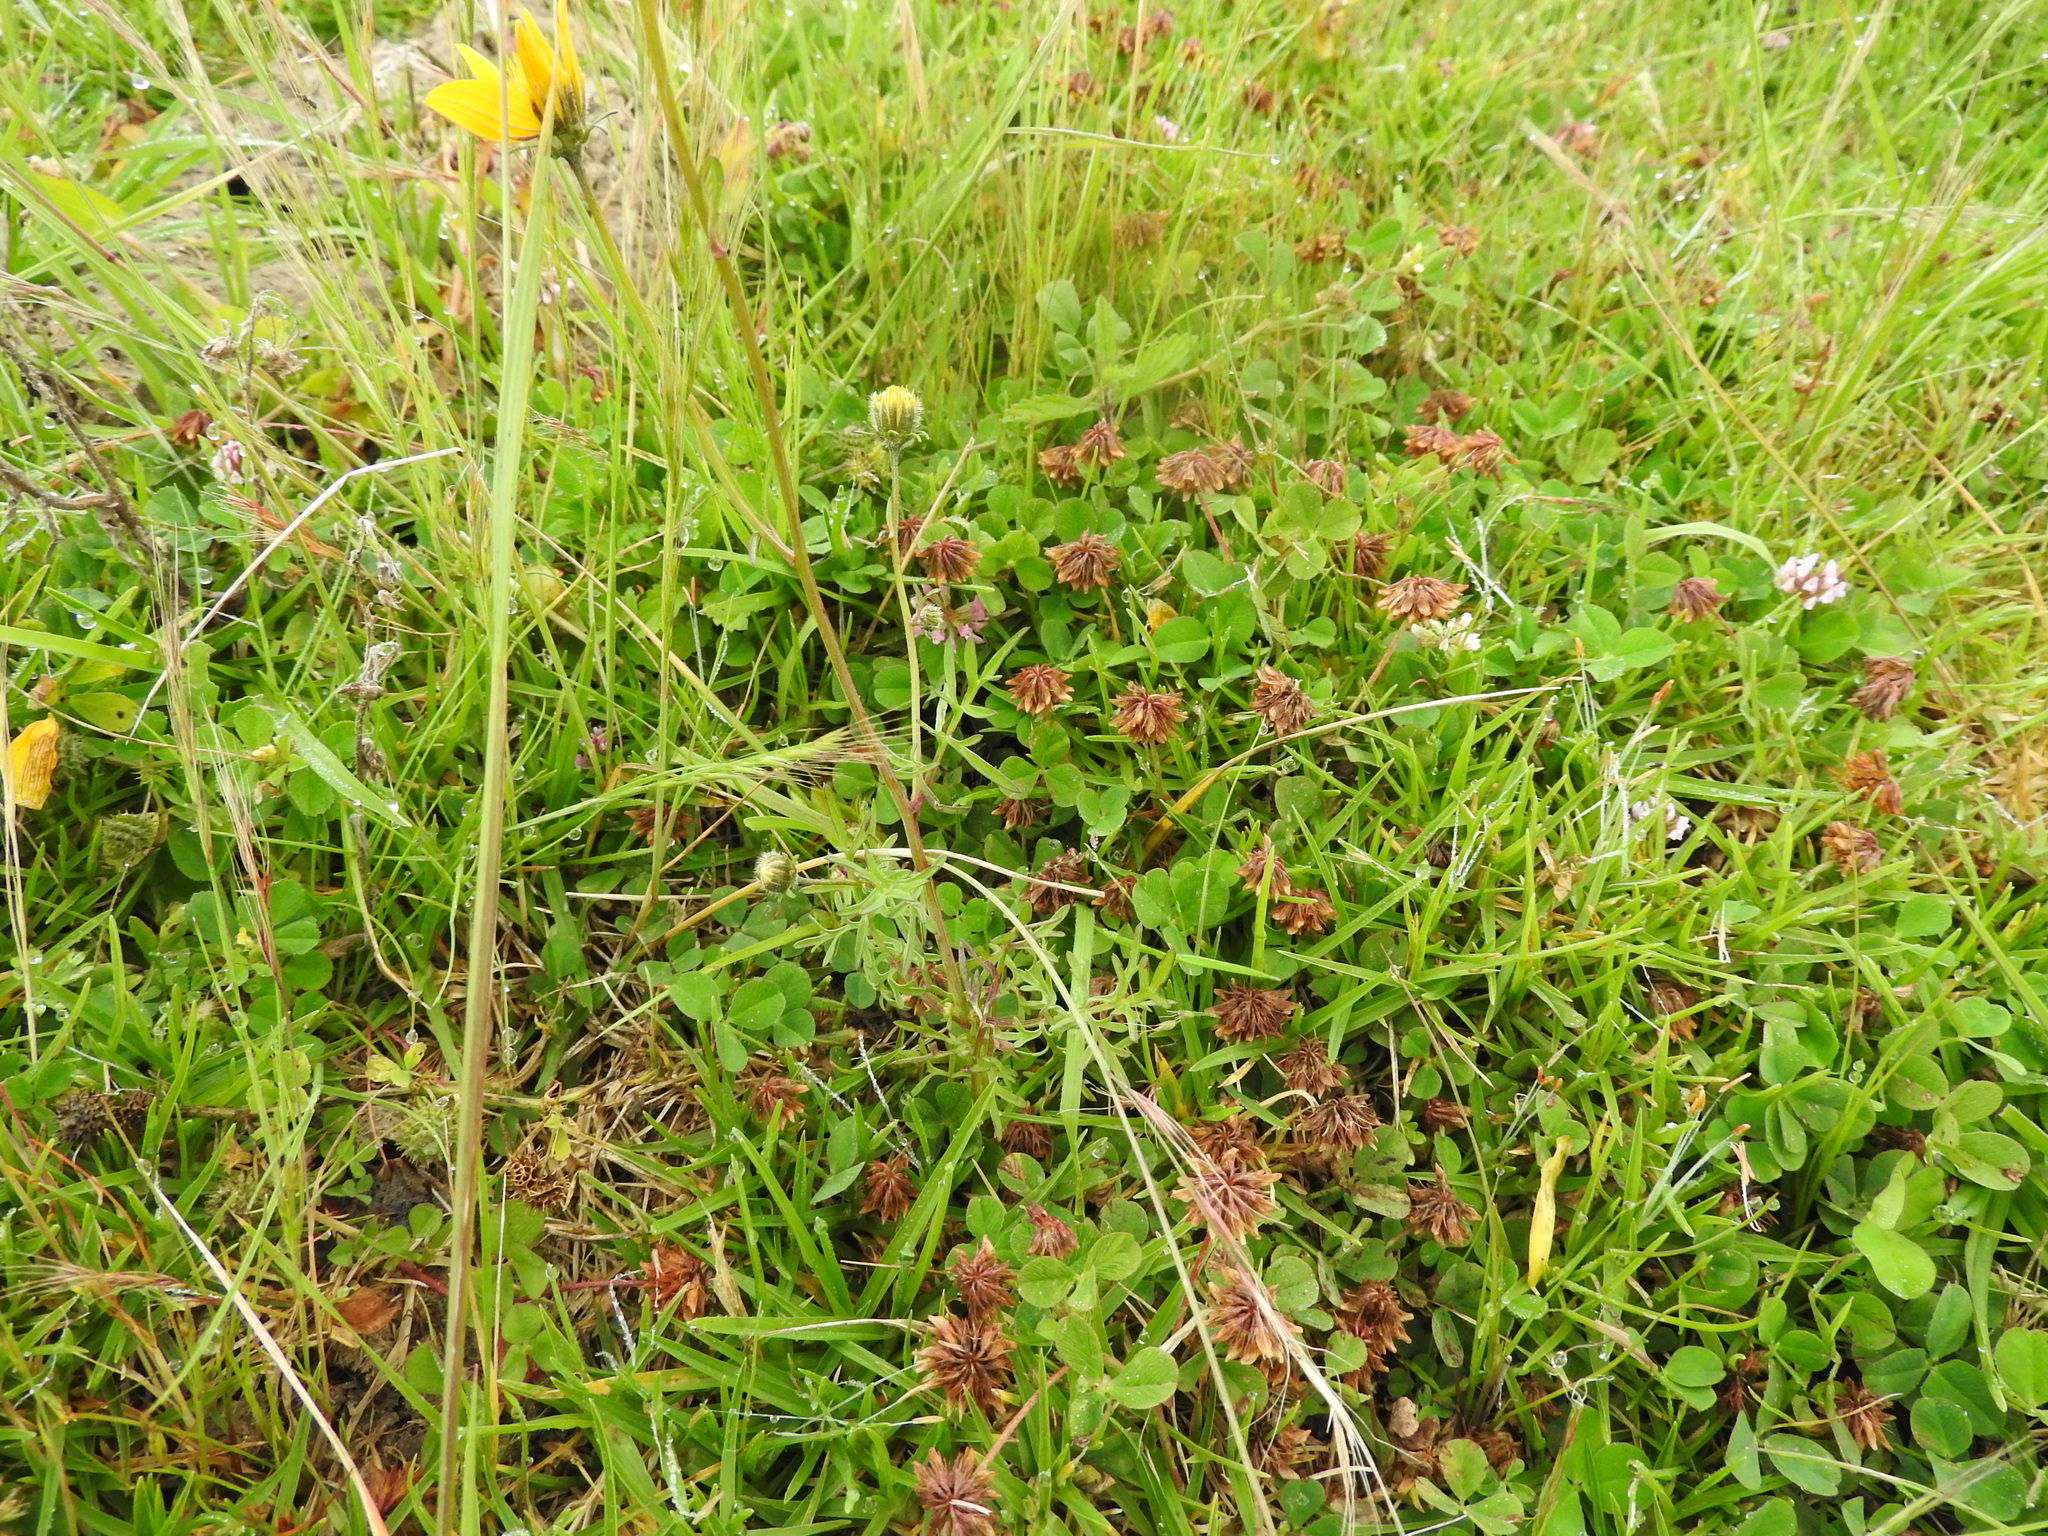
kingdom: Plantae
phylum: Tracheophyta
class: Magnoliopsida
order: Asterales
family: Asteraceae
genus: Bidens
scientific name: Bidens triplinervia
